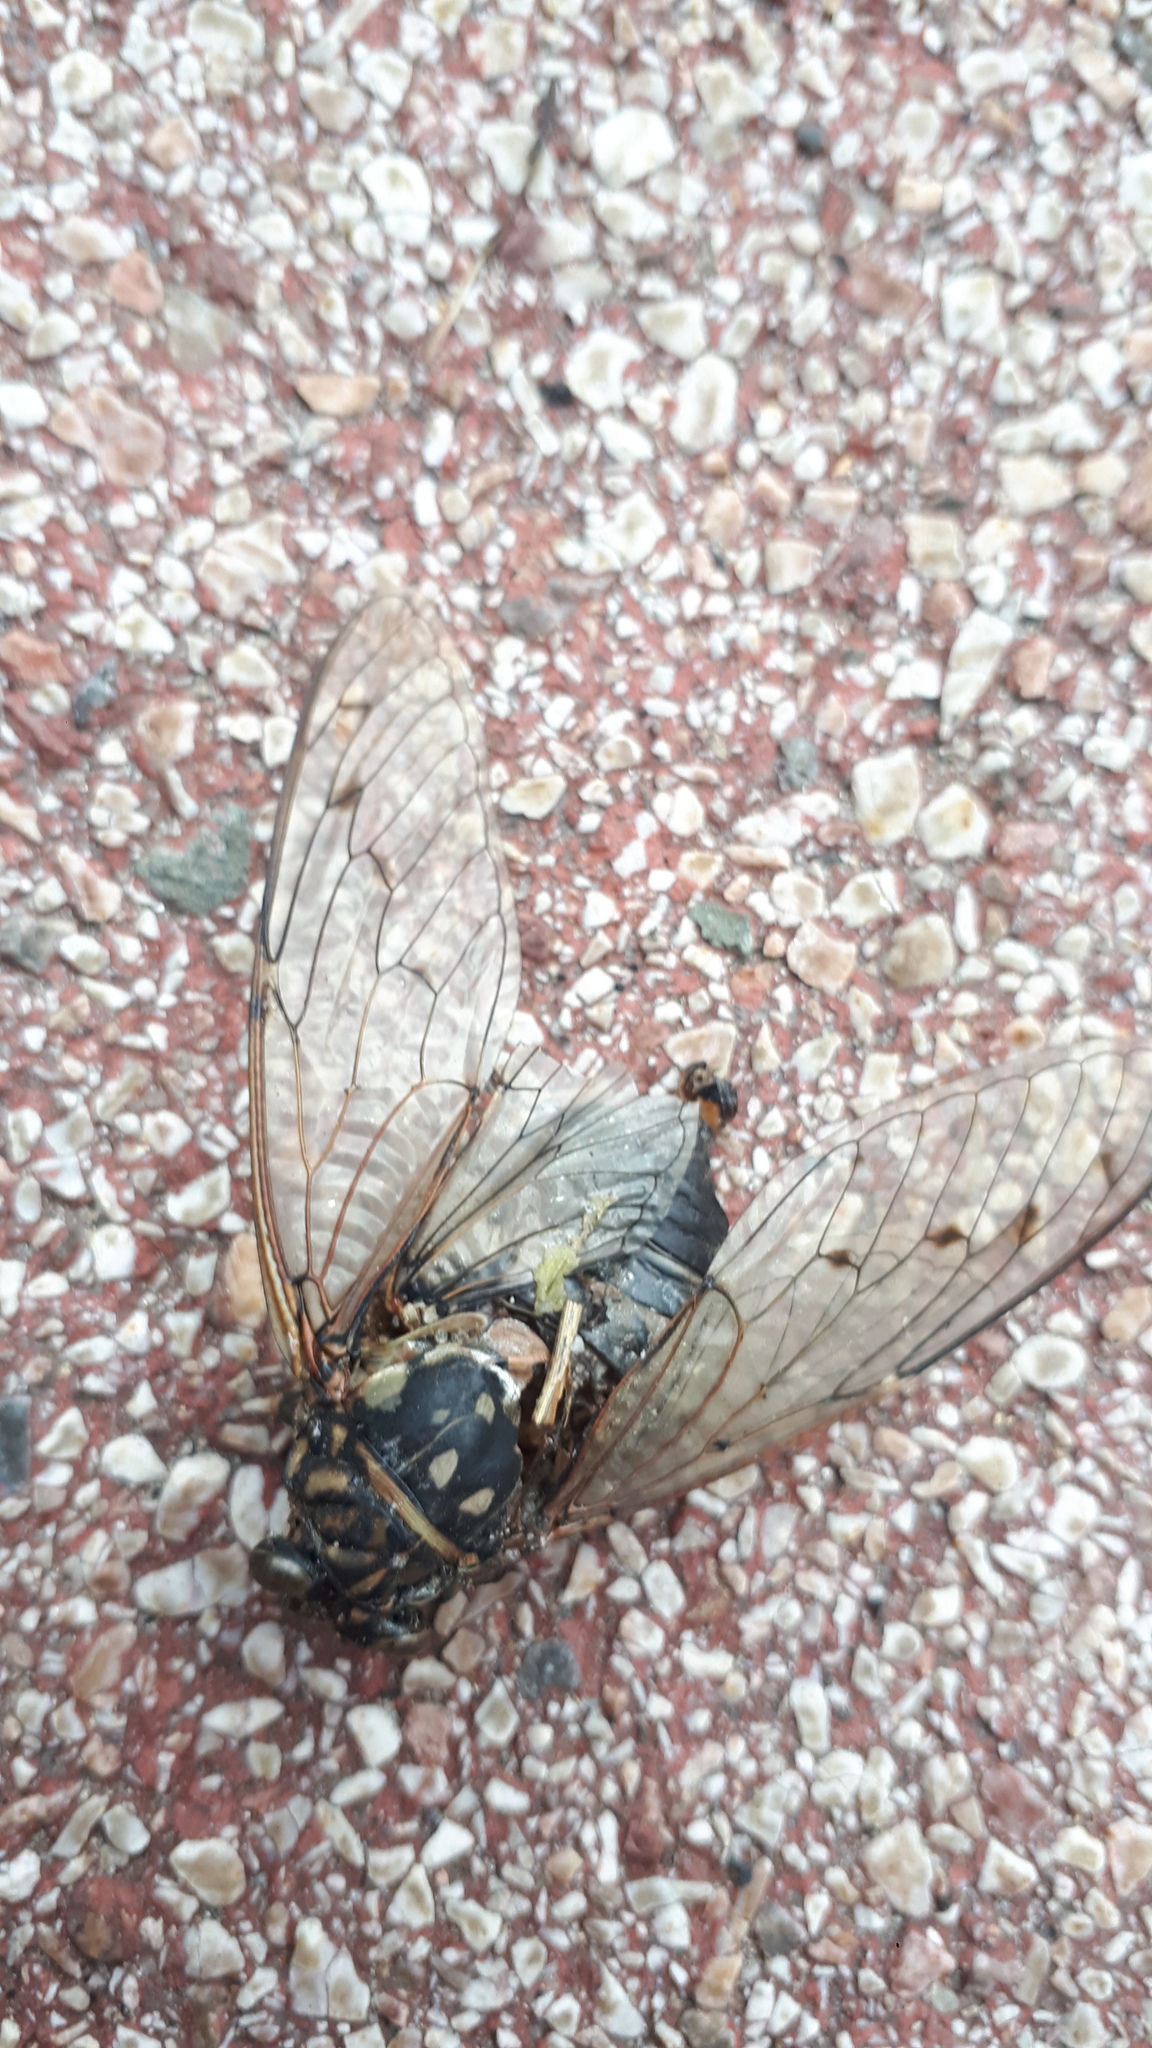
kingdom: Animalia
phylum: Arthropoda
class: Insecta
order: Hemiptera
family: Cicadidae
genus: Hyalessa
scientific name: Hyalessa maculaticollis
